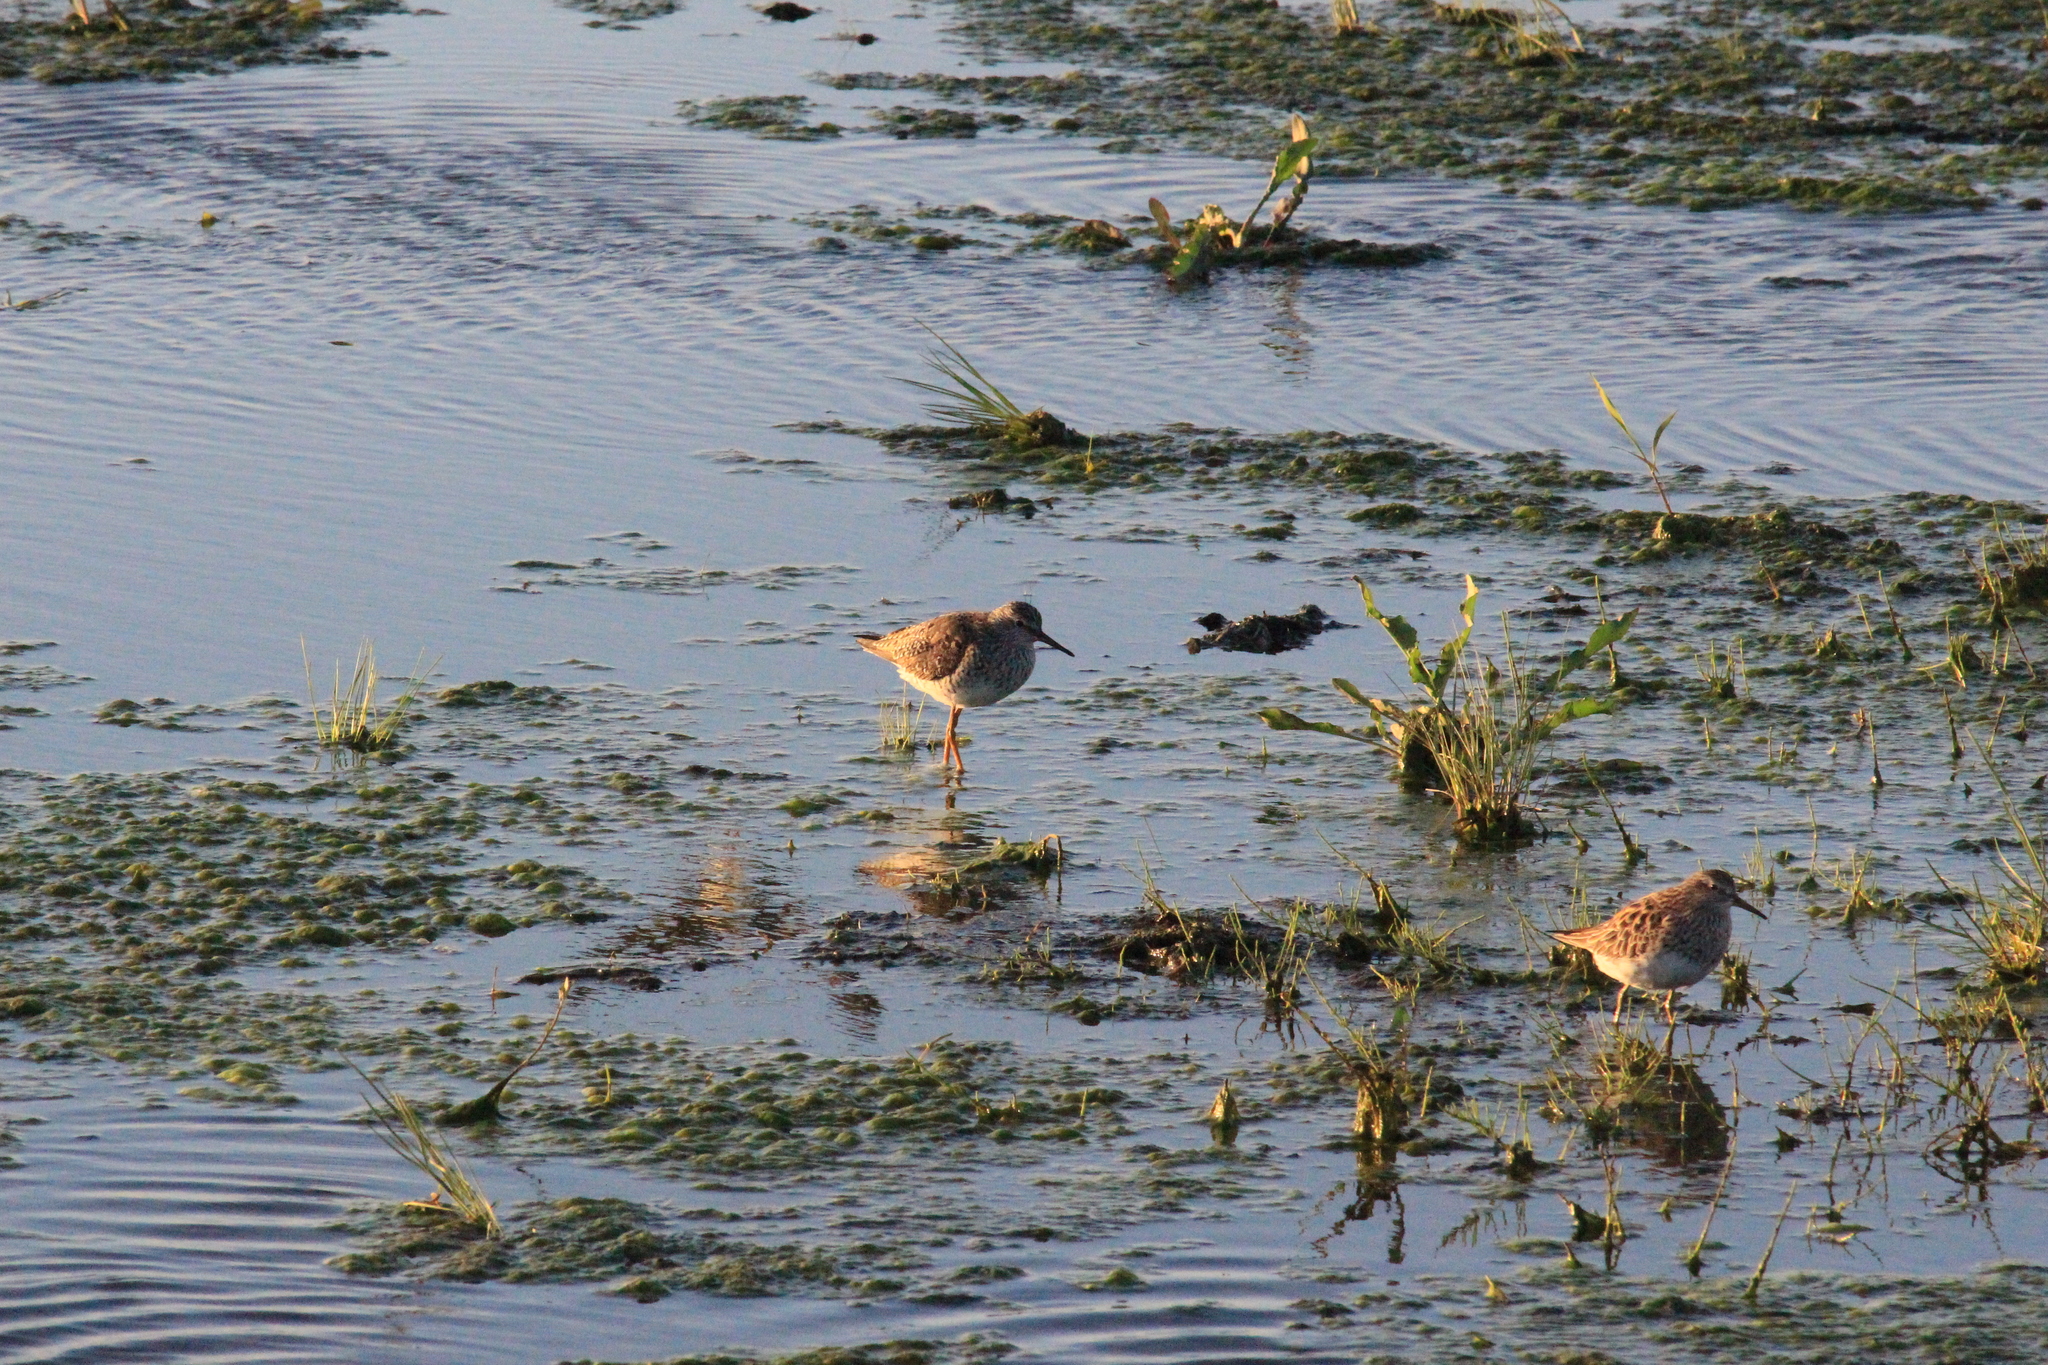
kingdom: Animalia
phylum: Chordata
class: Aves
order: Charadriiformes
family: Scolopacidae
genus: Calidris
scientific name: Calidris melanotos
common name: Pectoral sandpiper
